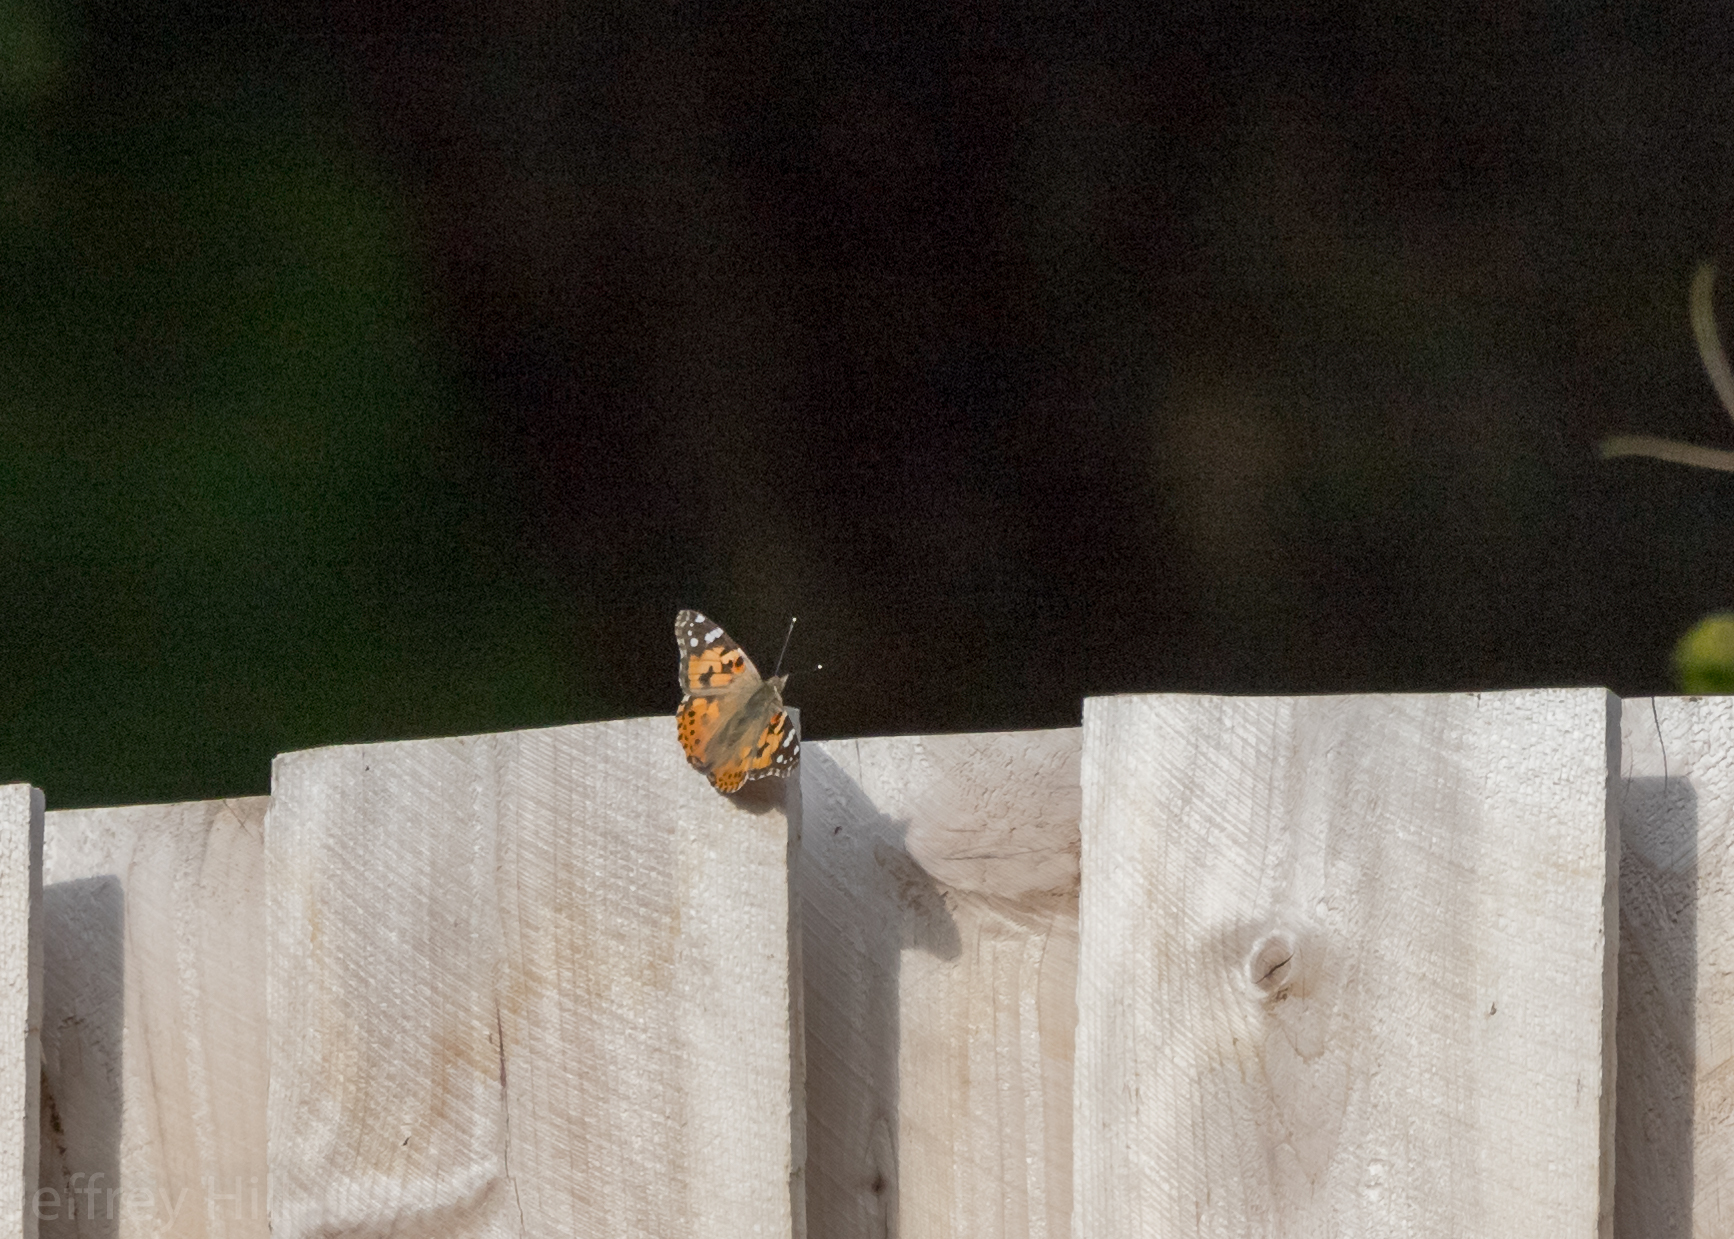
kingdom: Animalia
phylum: Arthropoda
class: Insecta
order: Lepidoptera
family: Nymphalidae
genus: Vanessa
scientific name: Vanessa cardui
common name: Painted lady
